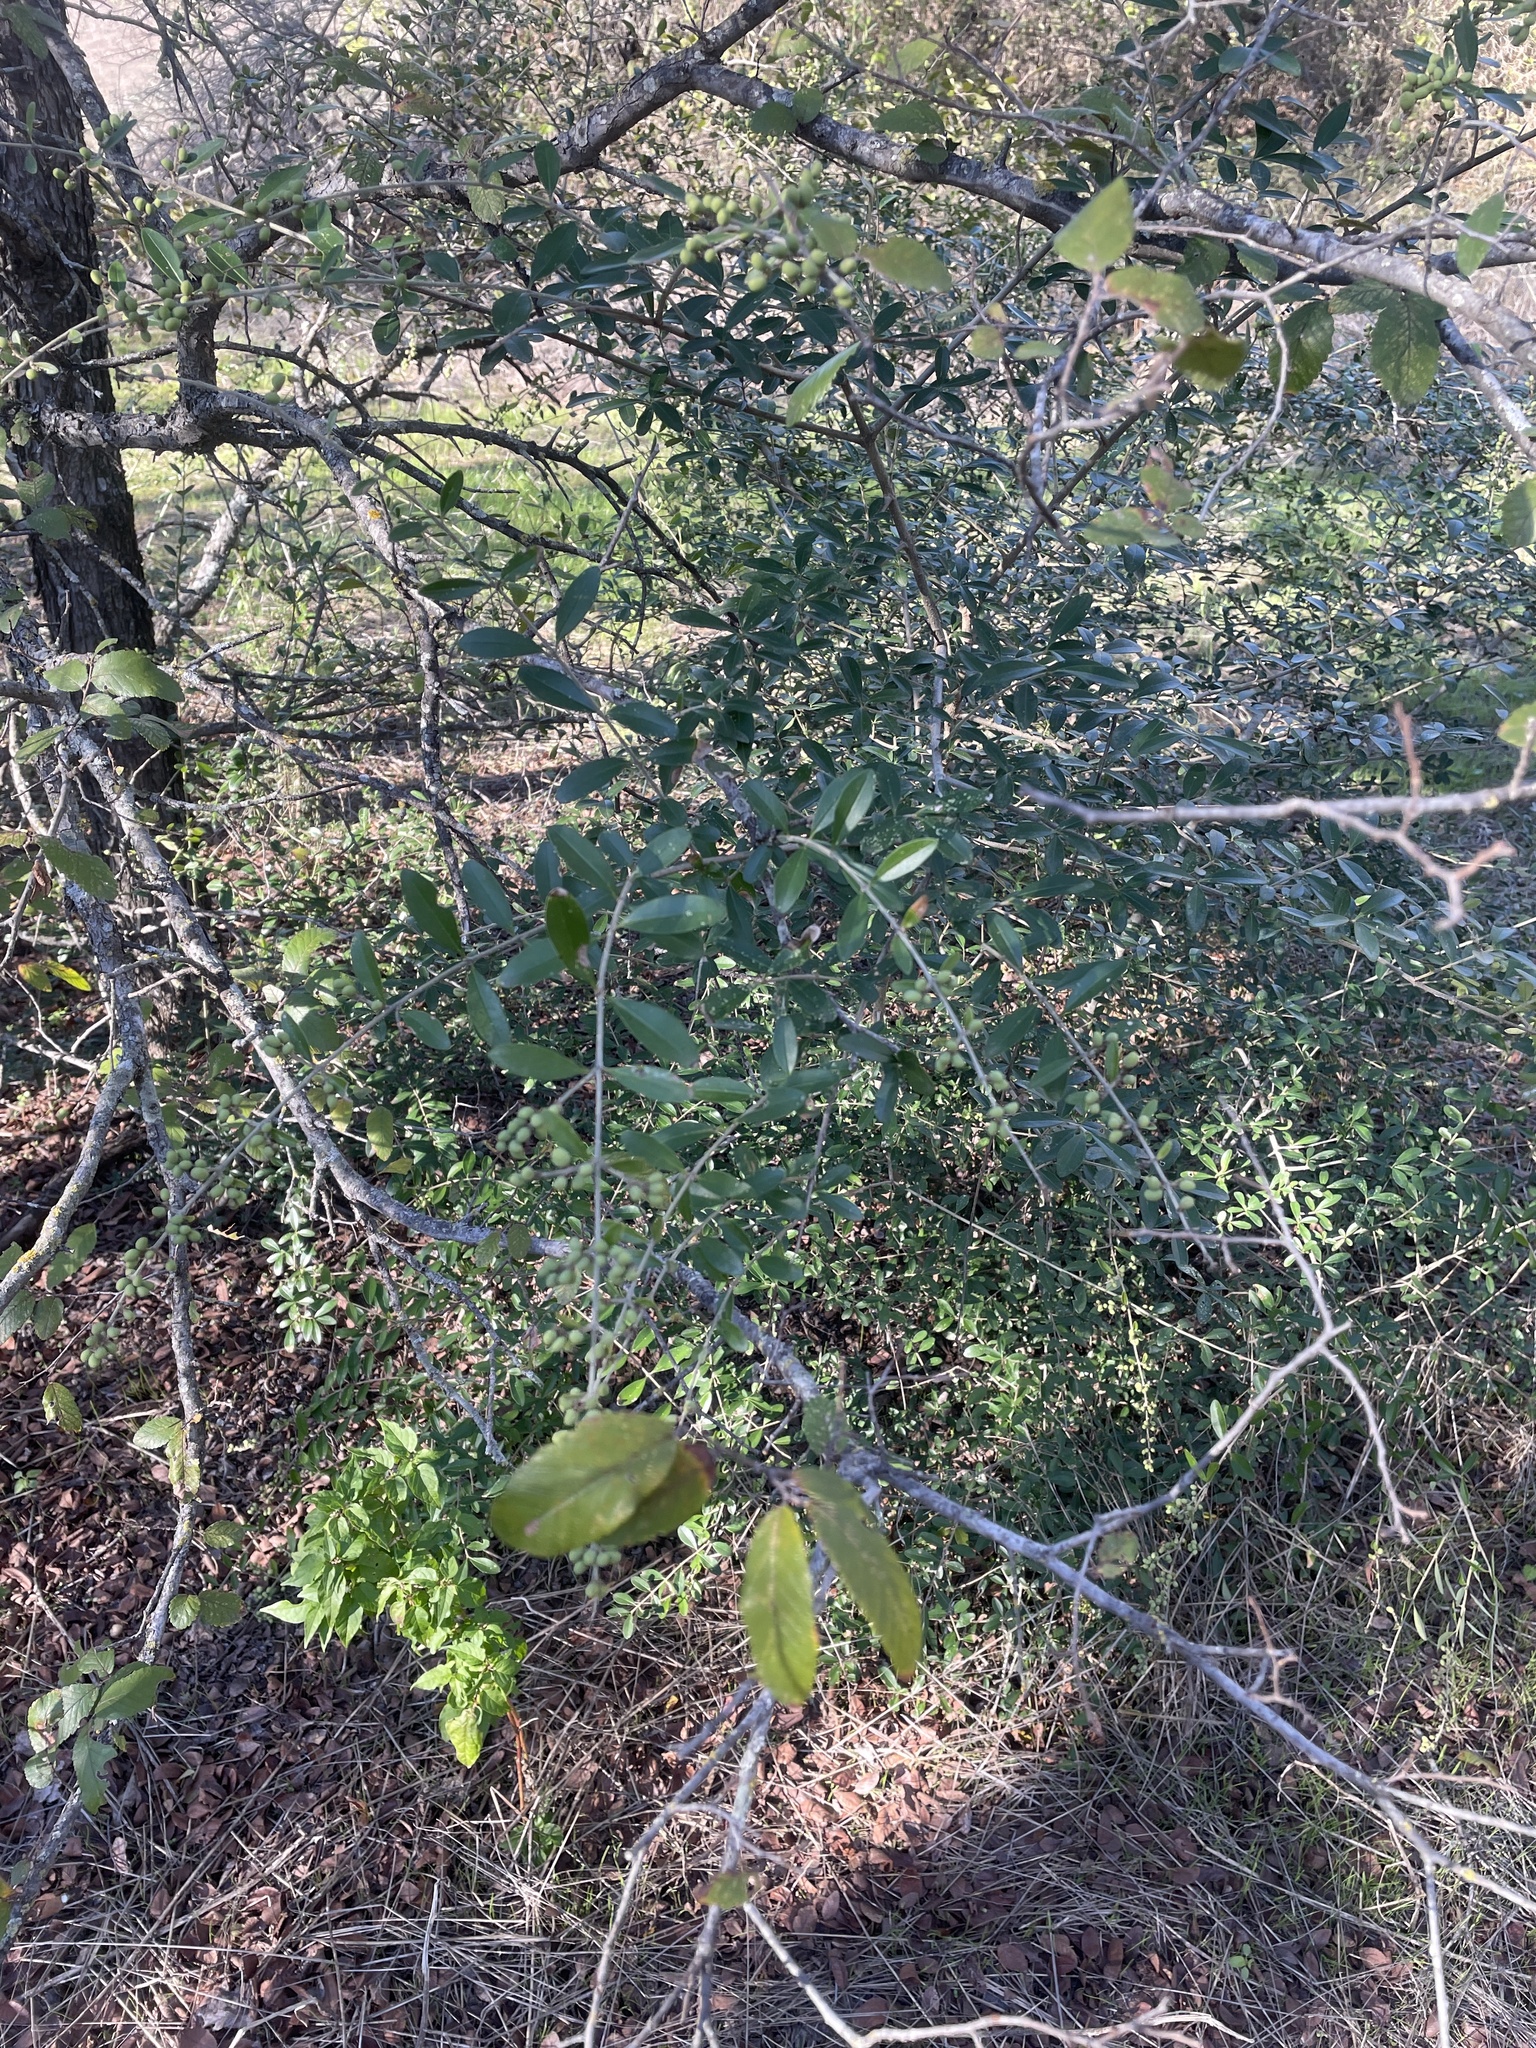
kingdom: Plantae
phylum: Tracheophyta
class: Magnoliopsida
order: Lamiales
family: Oleaceae
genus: Ligustrum
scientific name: Ligustrum quihoui
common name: Waxyleaf privet
